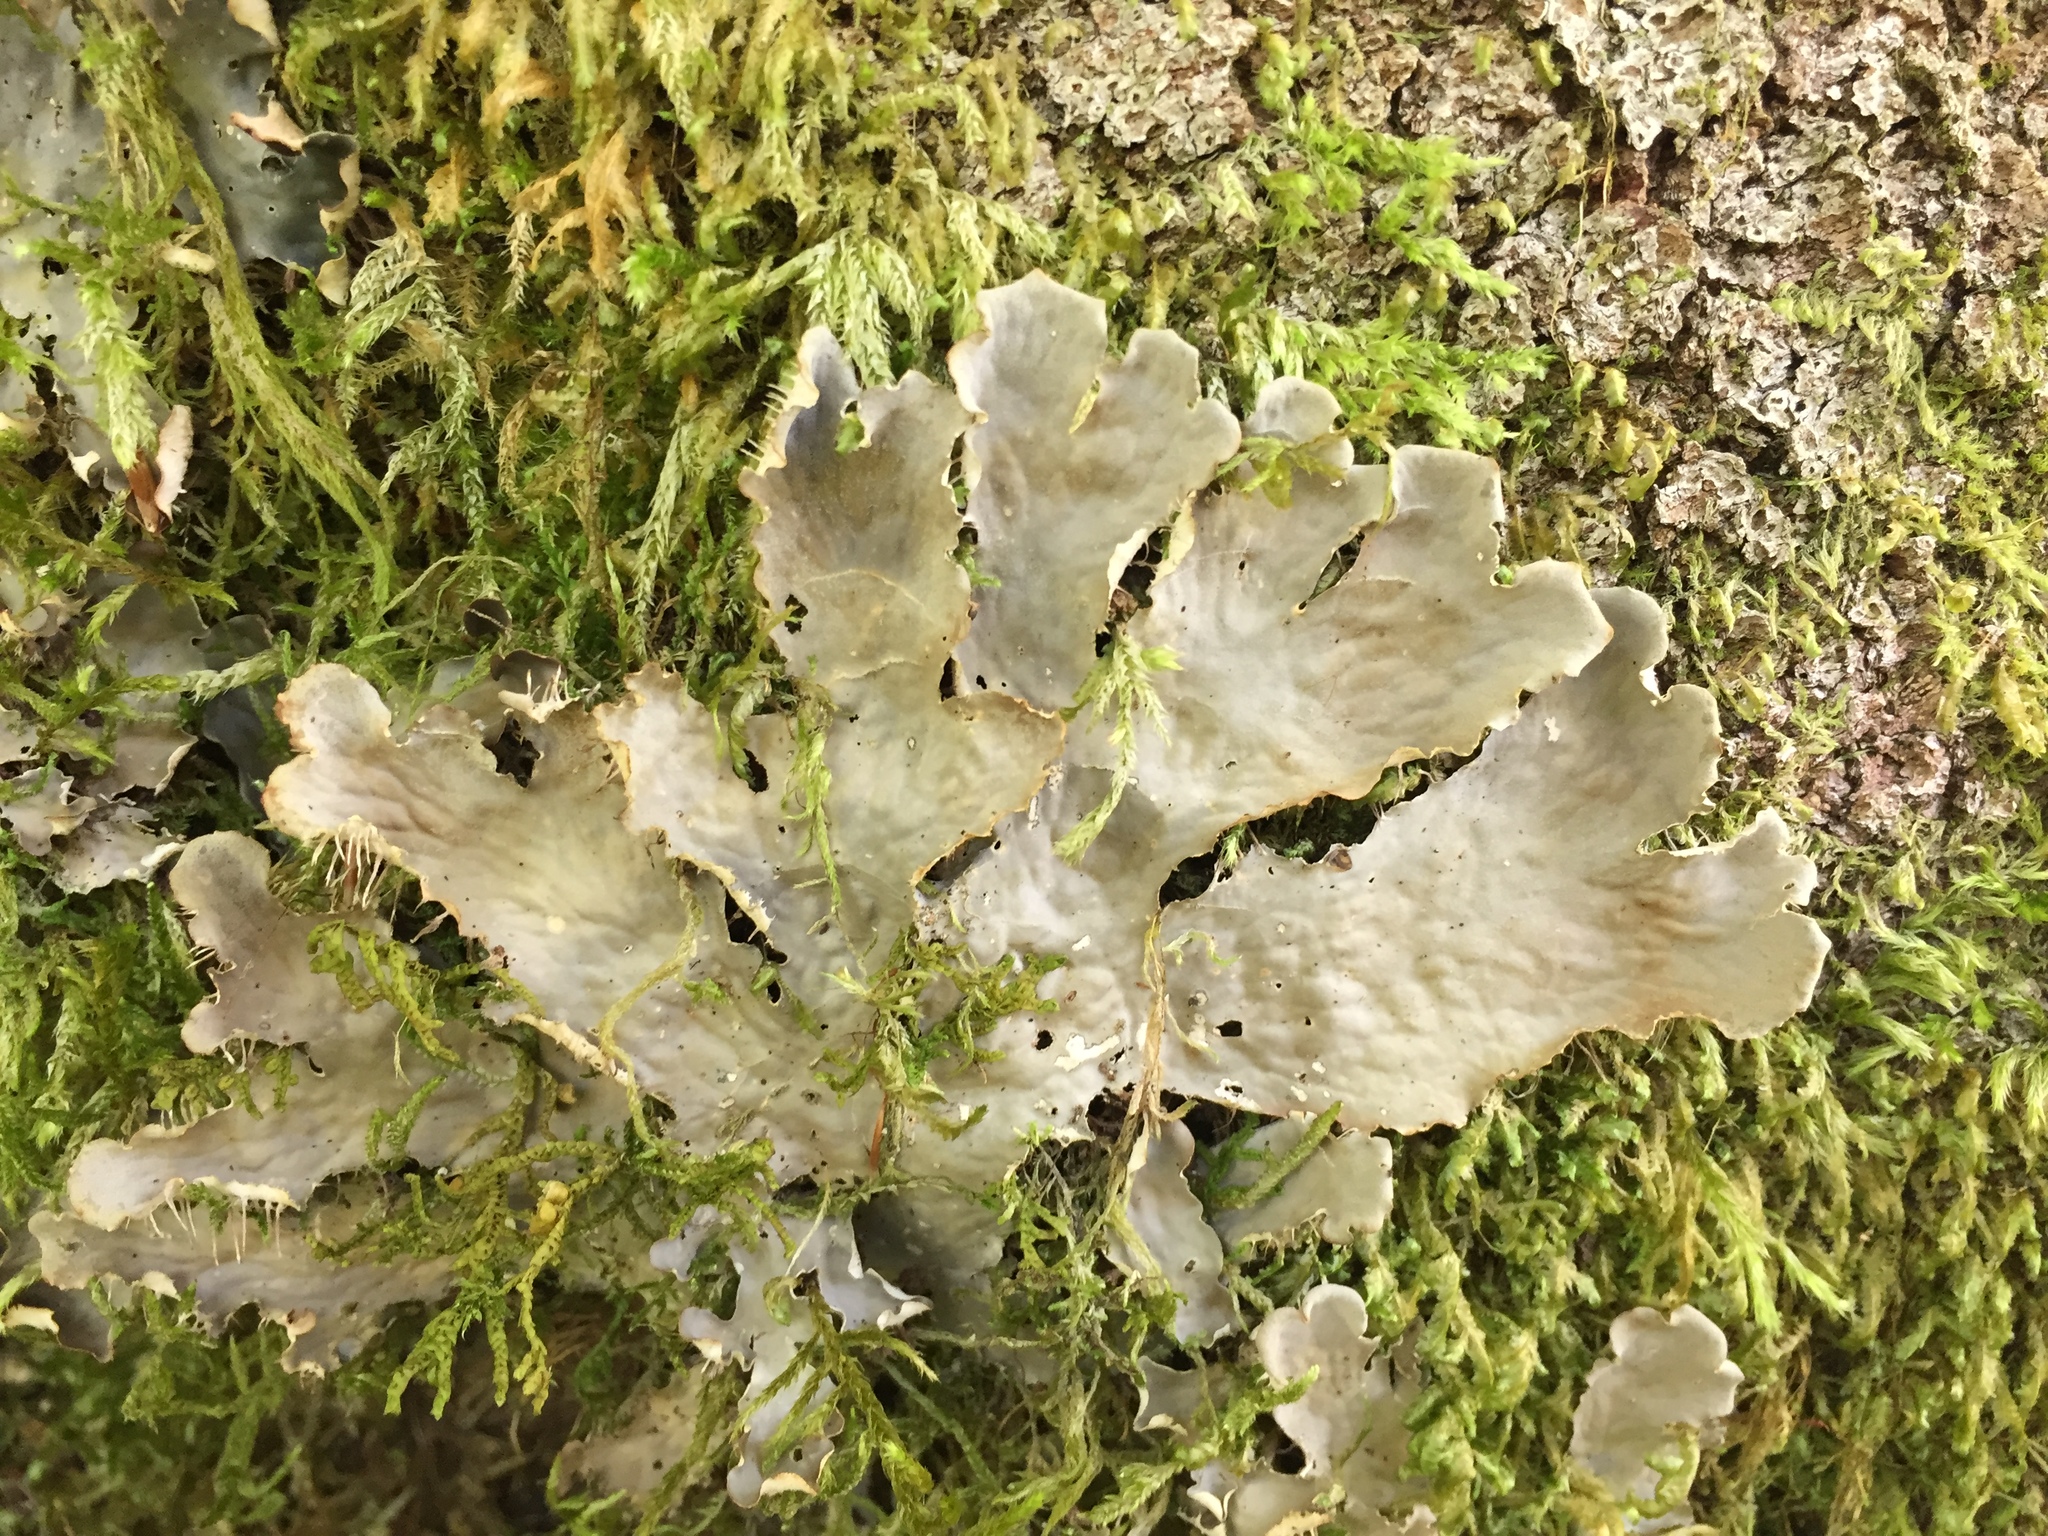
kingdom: Fungi
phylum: Ascomycota
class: Lecanoromycetes
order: Peltigerales
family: Peltigeraceae
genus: Peltigera
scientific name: Peltigera praetextata
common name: Scaly dog-lichen
